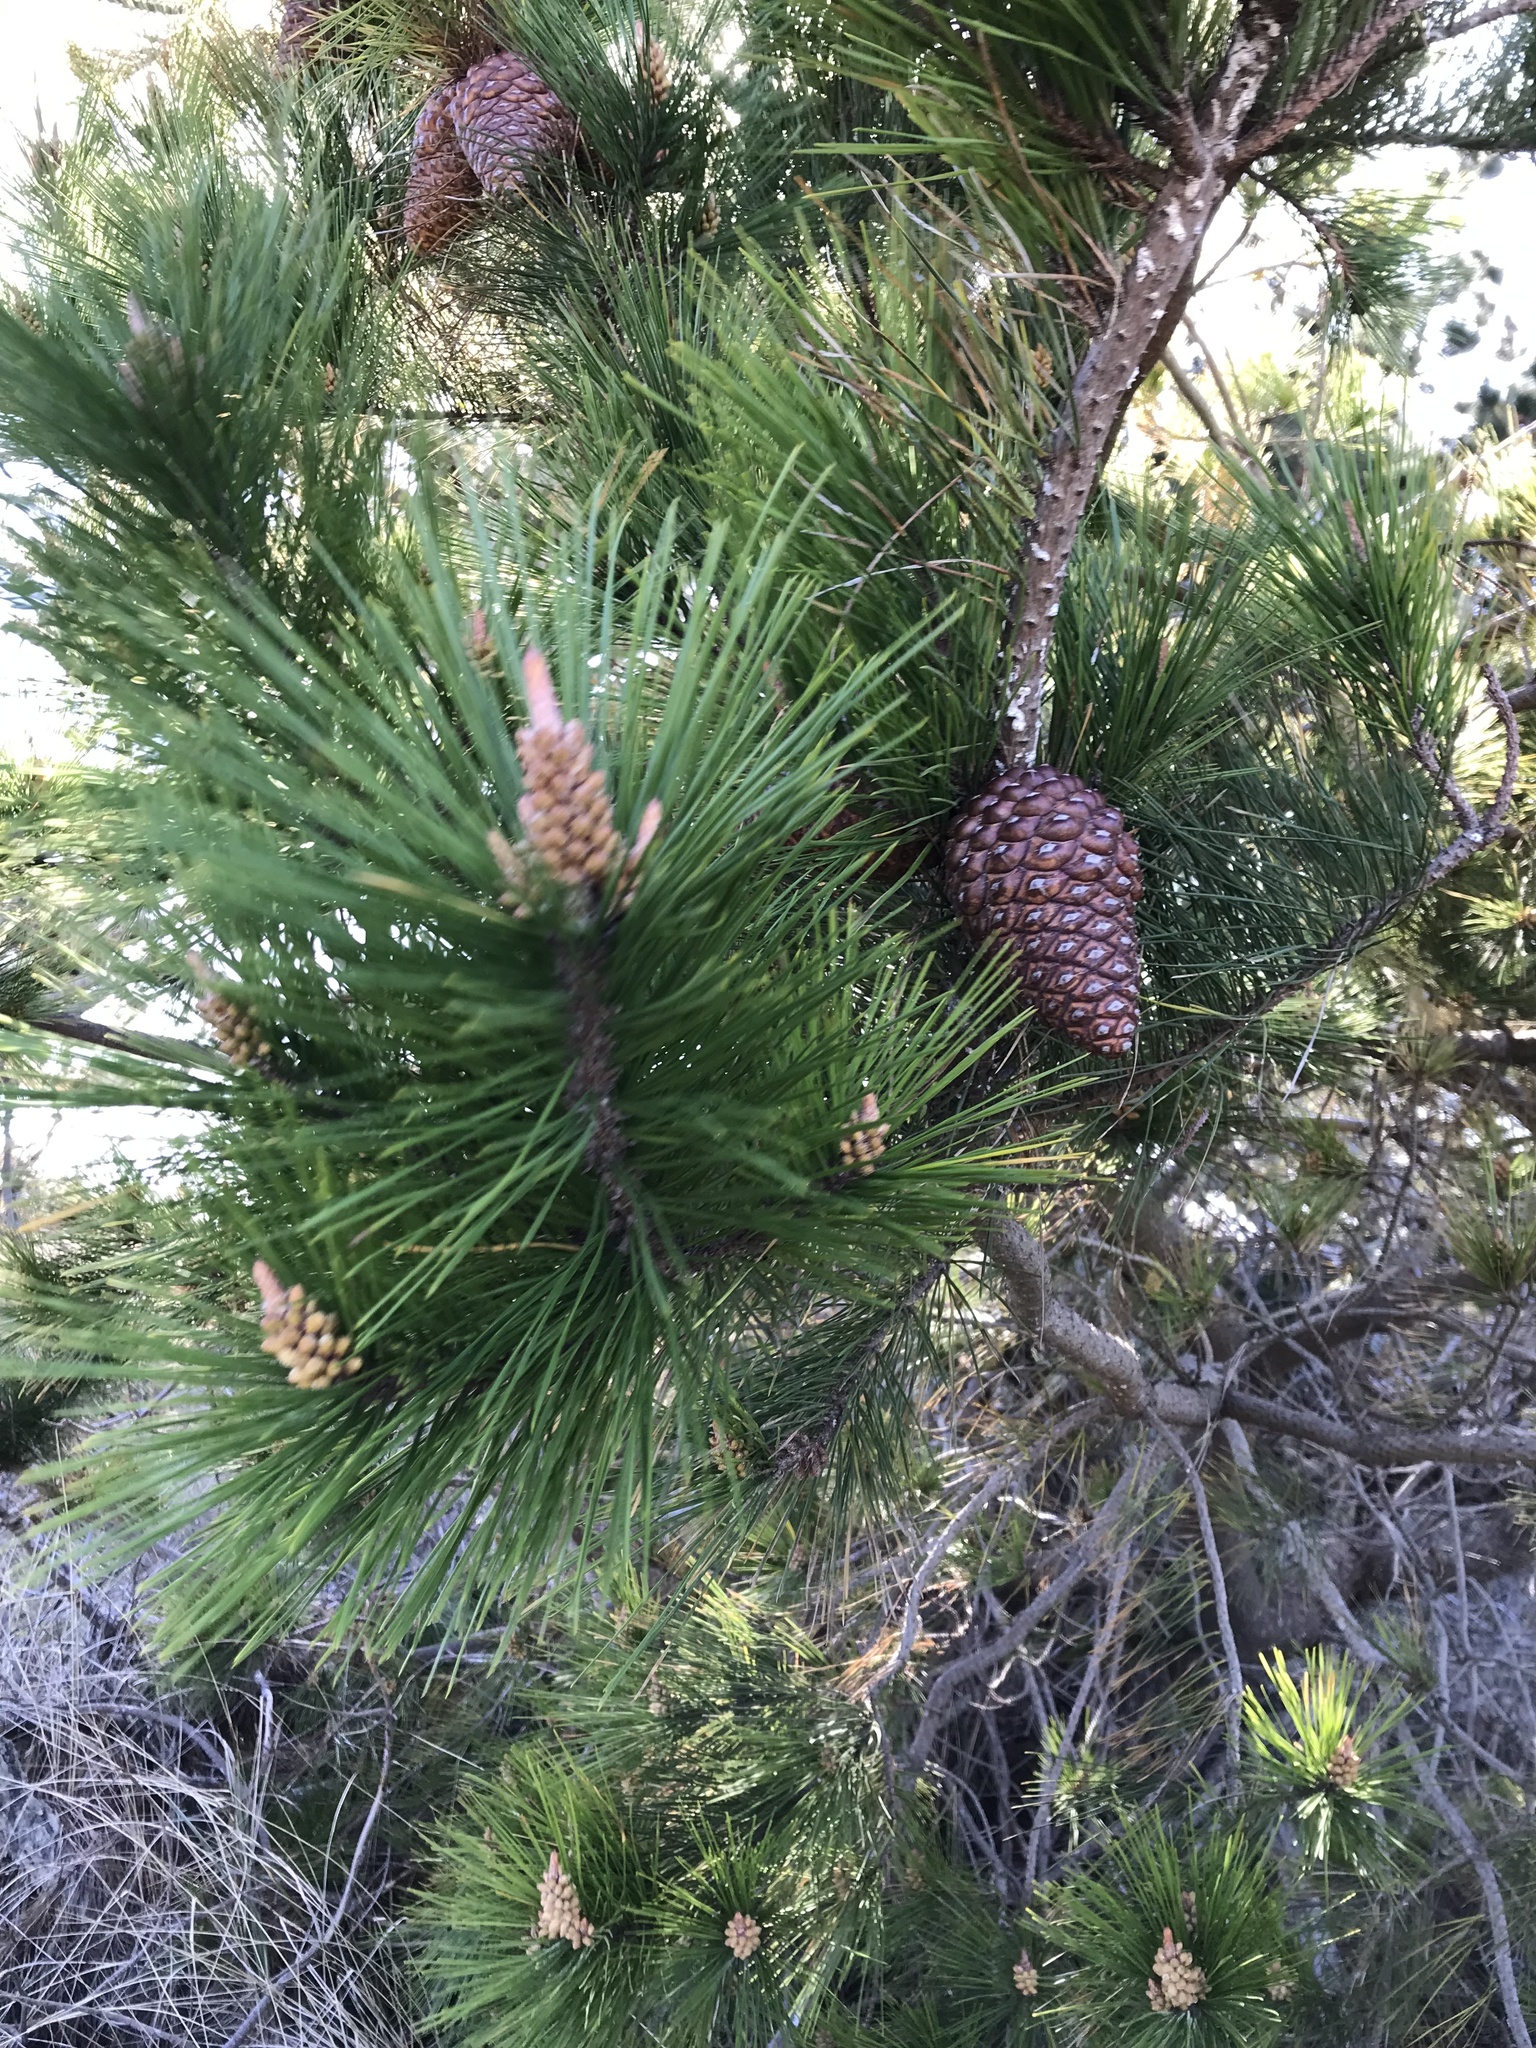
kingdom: Plantae
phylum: Tracheophyta
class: Pinopsida
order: Pinales
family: Pinaceae
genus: Pinus
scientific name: Pinus radiata
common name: Monterey pine
